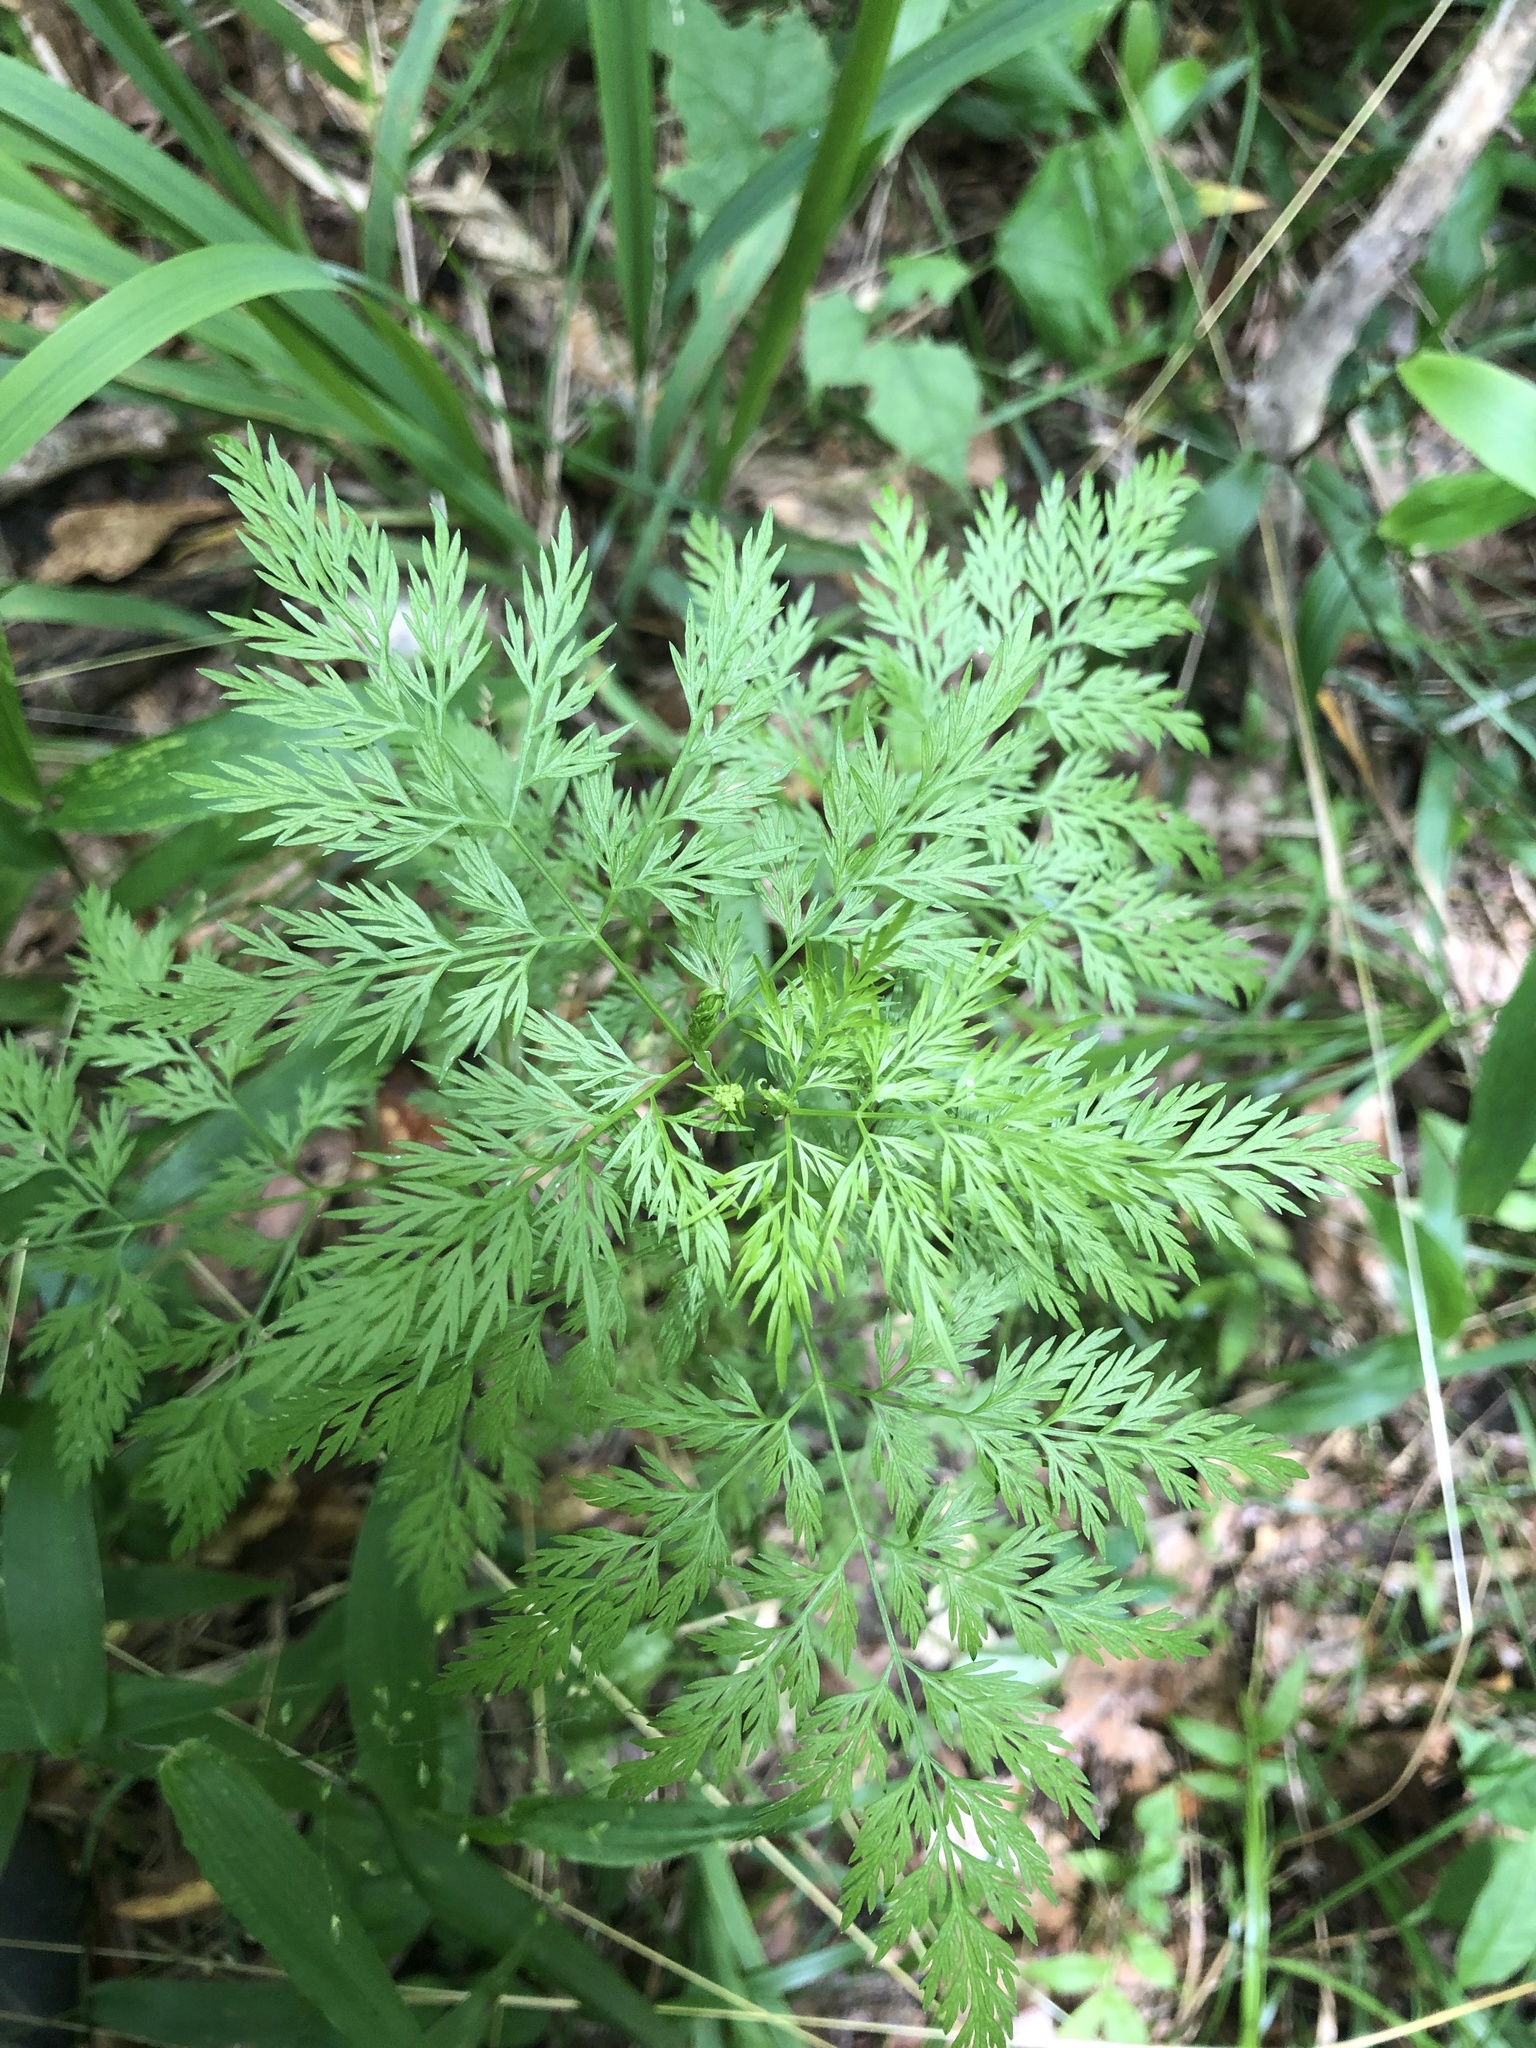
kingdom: Plantae
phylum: Tracheophyta
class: Magnoliopsida
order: Apiales
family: Apiaceae
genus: Trepocarpus
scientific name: Trepocarpus aethusae
